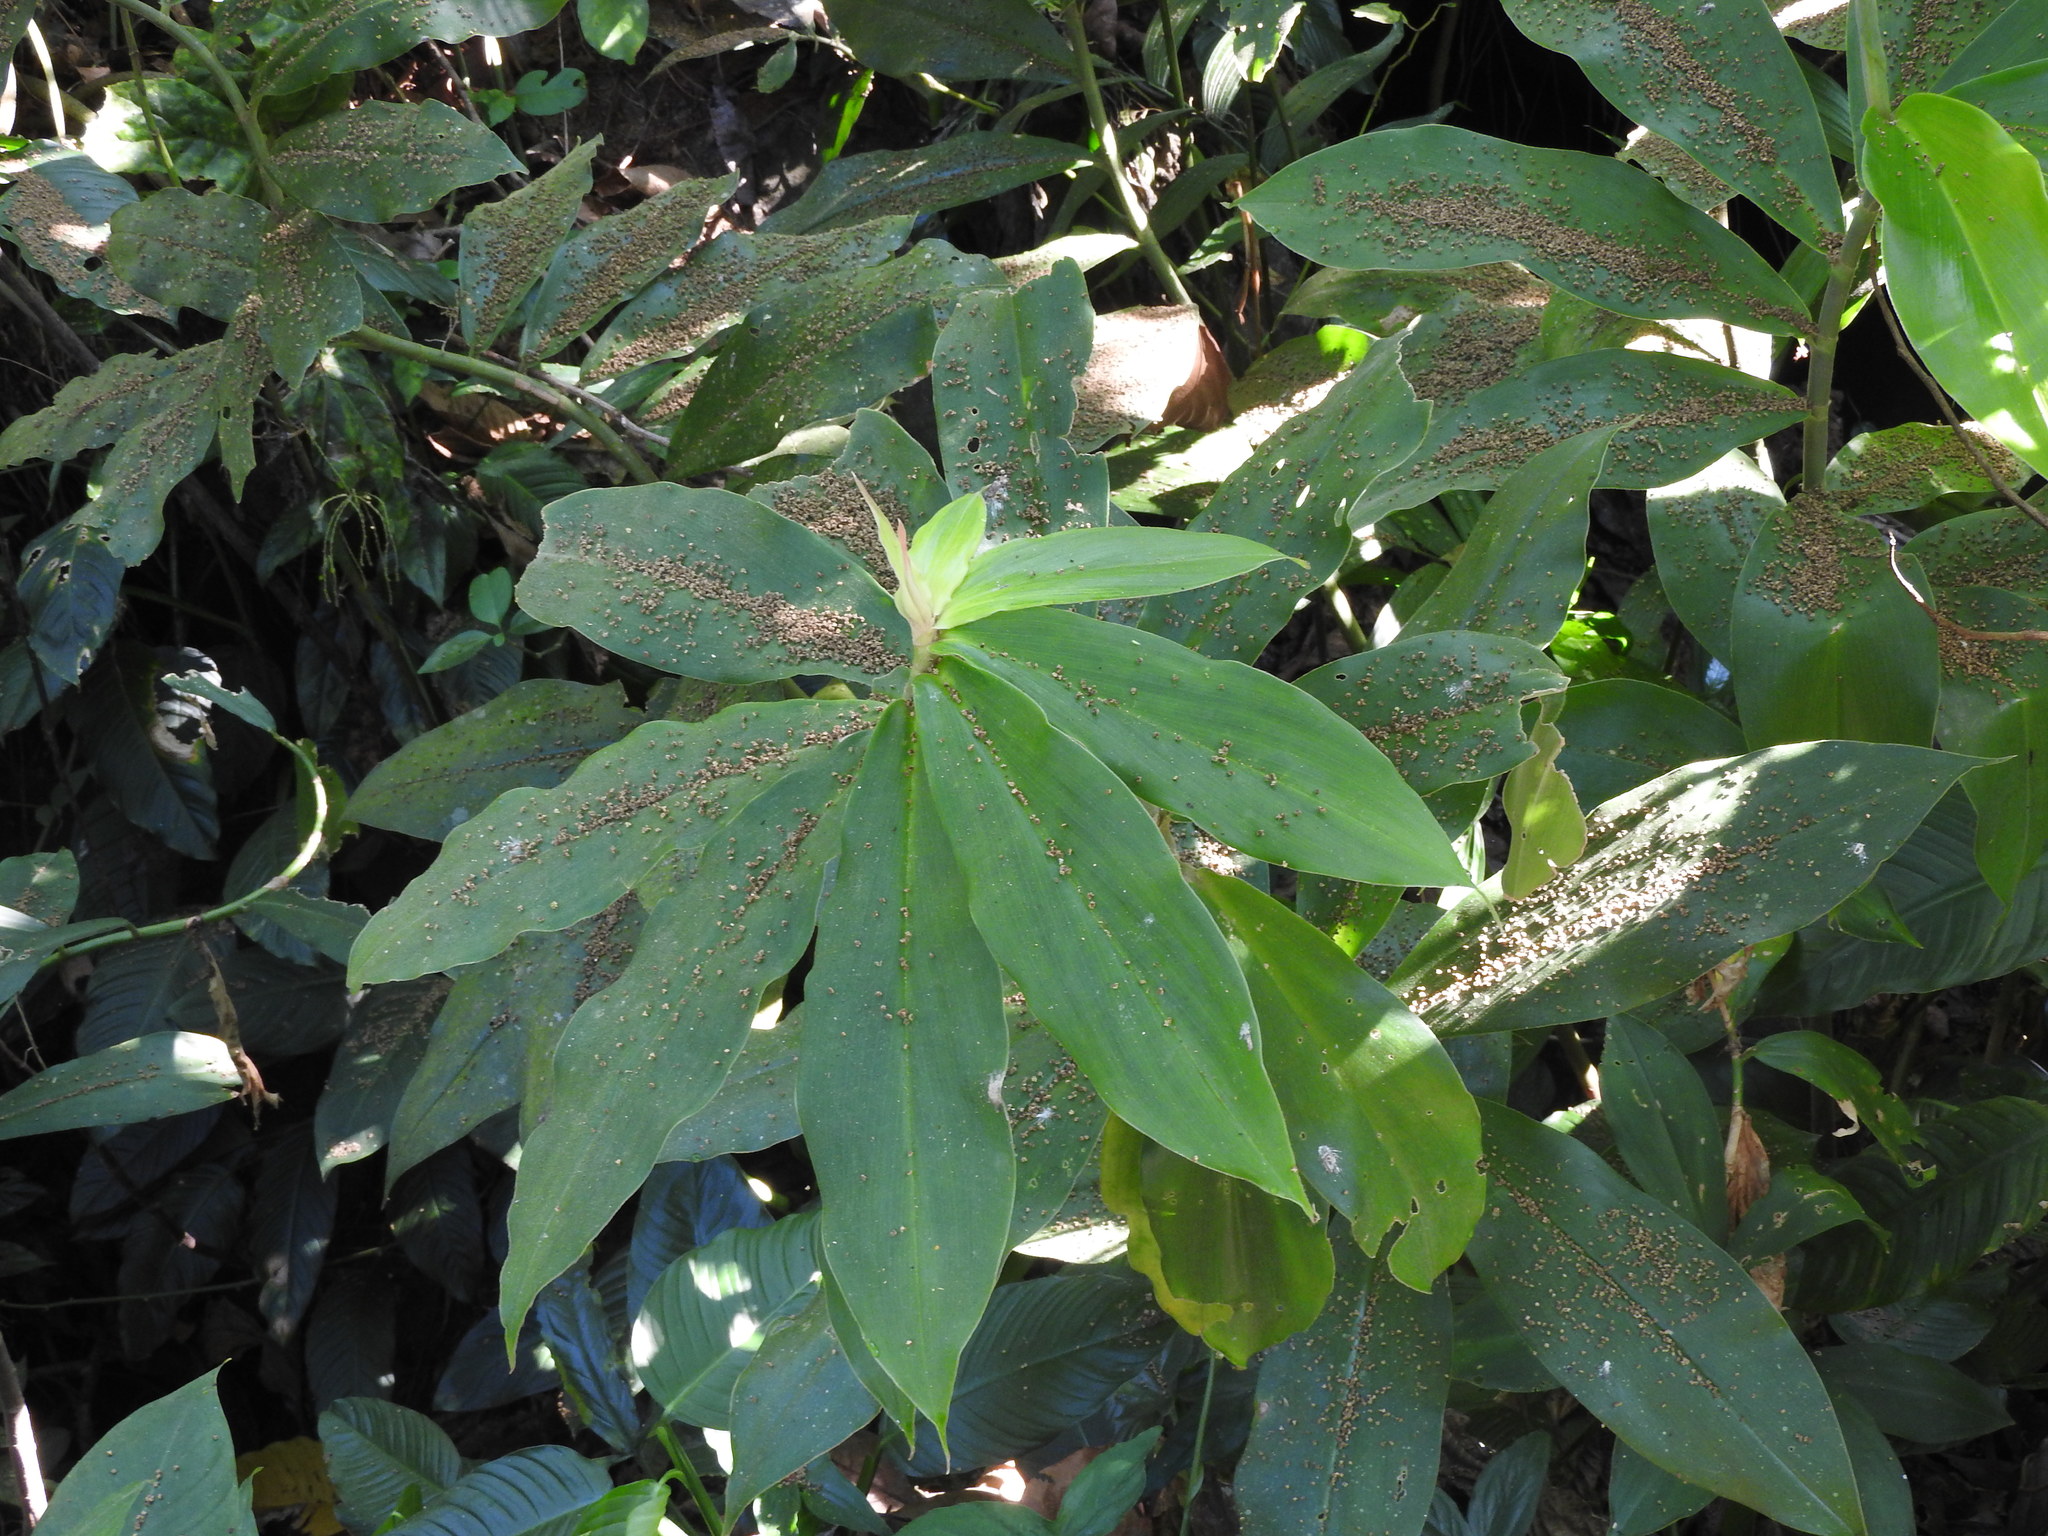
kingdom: Plantae
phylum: Tracheophyta
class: Liliopsida
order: Zingiberales
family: Costaceae
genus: Costus
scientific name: Costus pictus
